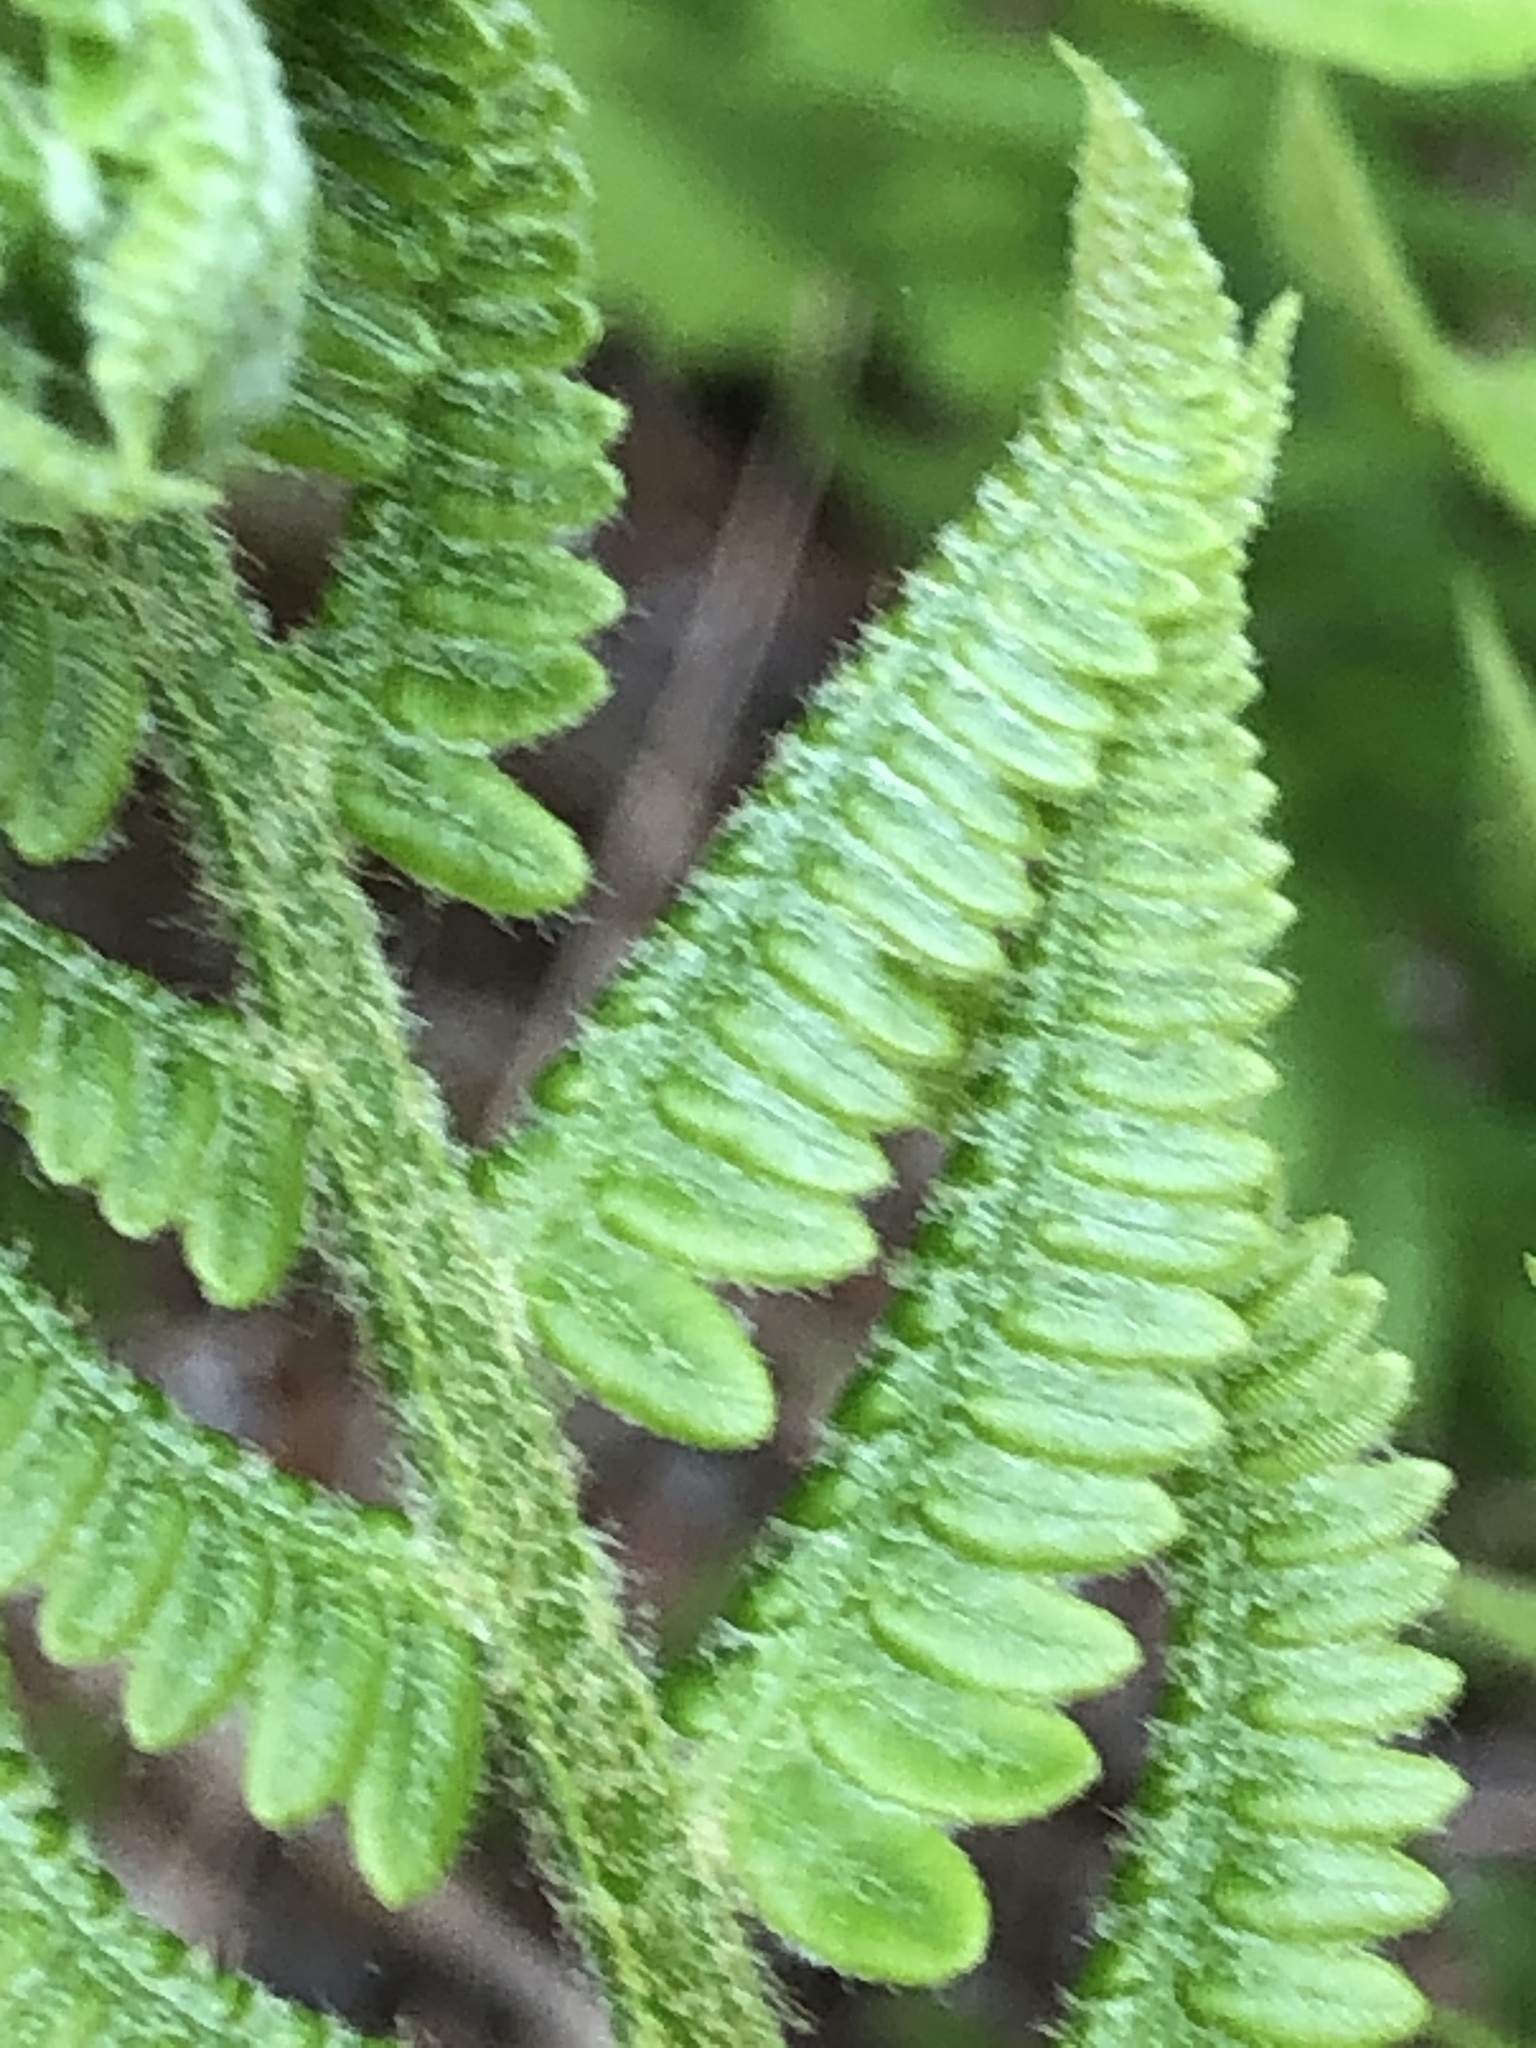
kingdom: Plantae
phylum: Tracheophyta
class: Polypodiopsida
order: Osmundales
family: Osmundaceae
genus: Osmundastrum
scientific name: Osmundastrum cinnamomeum
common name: Cinnamon fern
